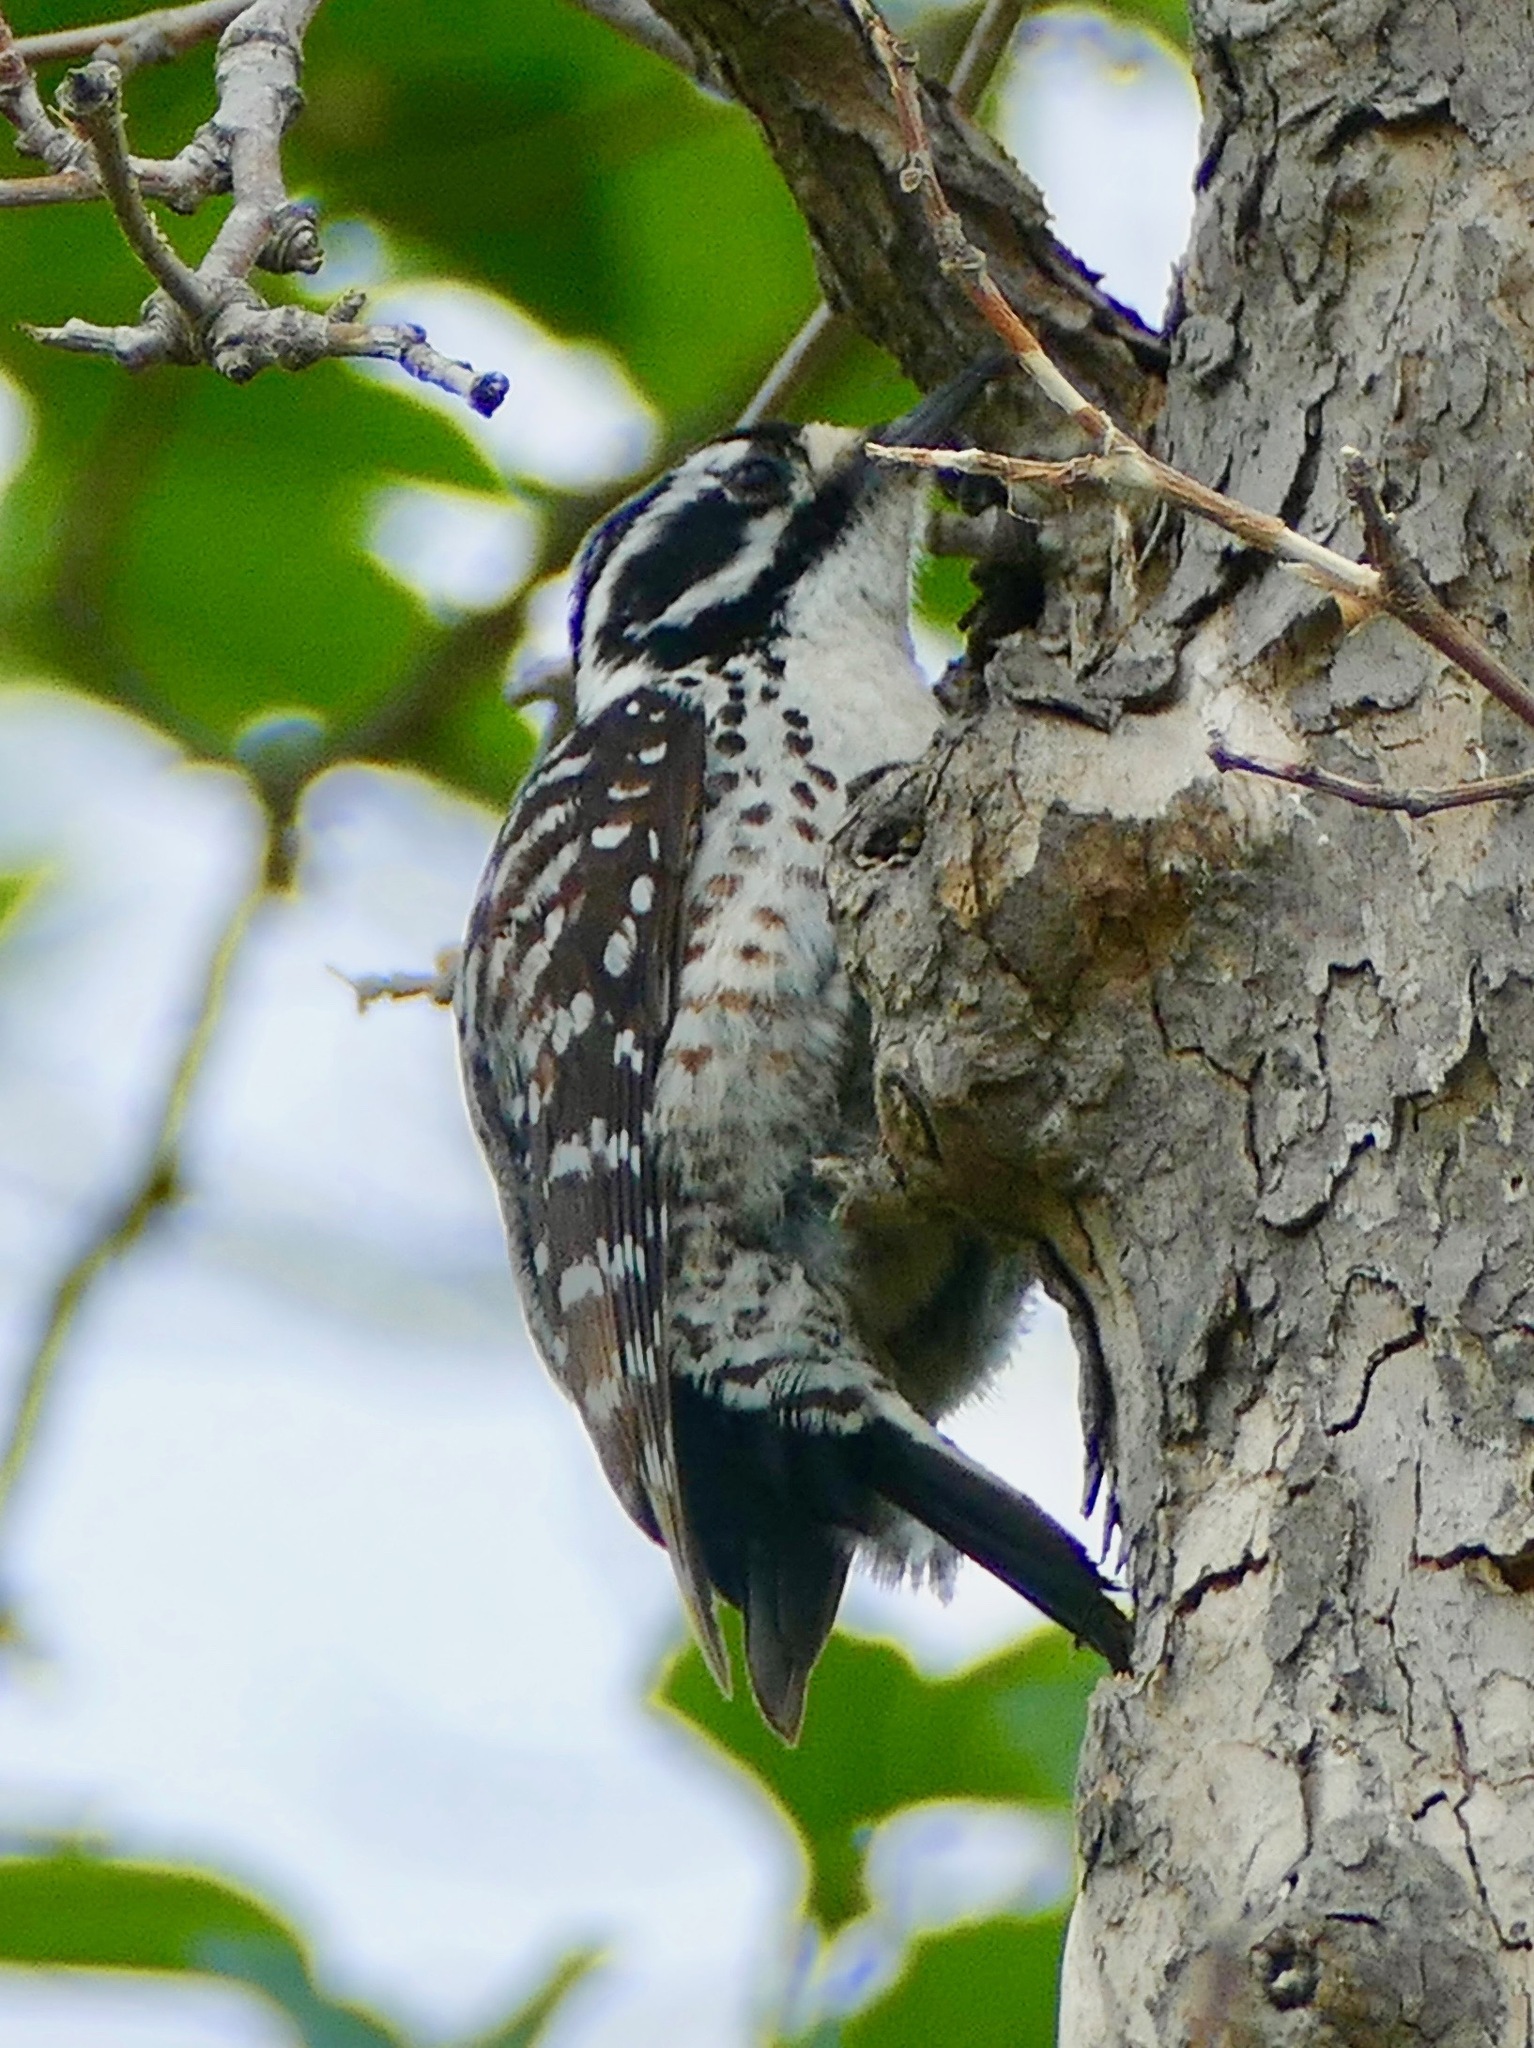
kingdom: Animalia
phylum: Chordata
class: Aves
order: Piciformes
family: Picidae
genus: Dryobates
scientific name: Dryobates nuttallii
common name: Nuttall's woodpecker
